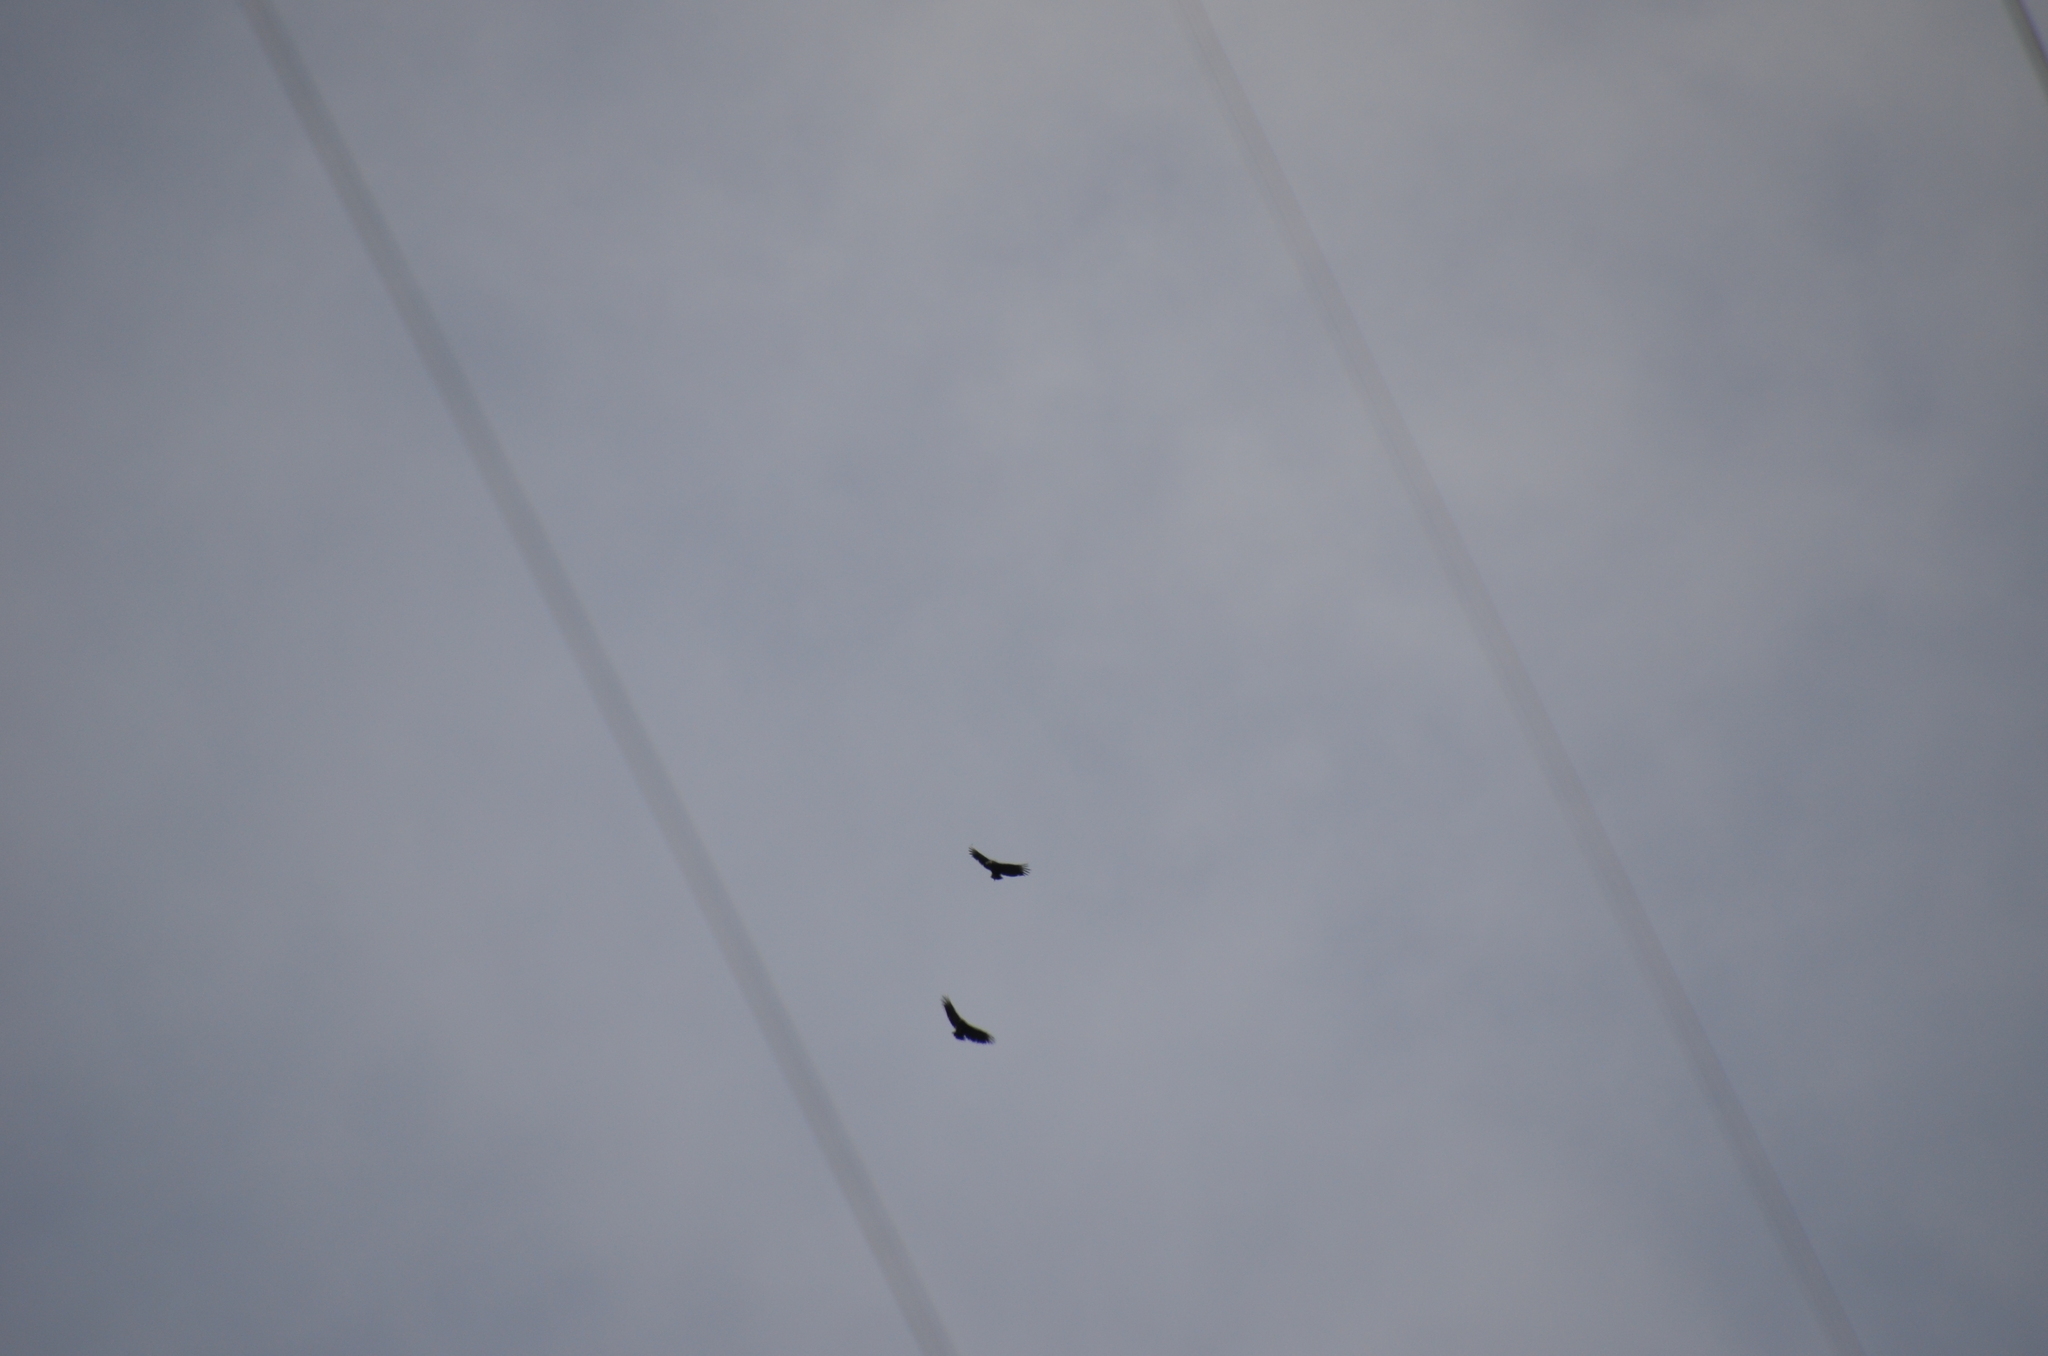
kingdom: Animalia
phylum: Chordata
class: Aves
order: Accipitriformes
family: Cathartidae
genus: Coragyps
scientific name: Coragyps atratus
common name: Black vulture
